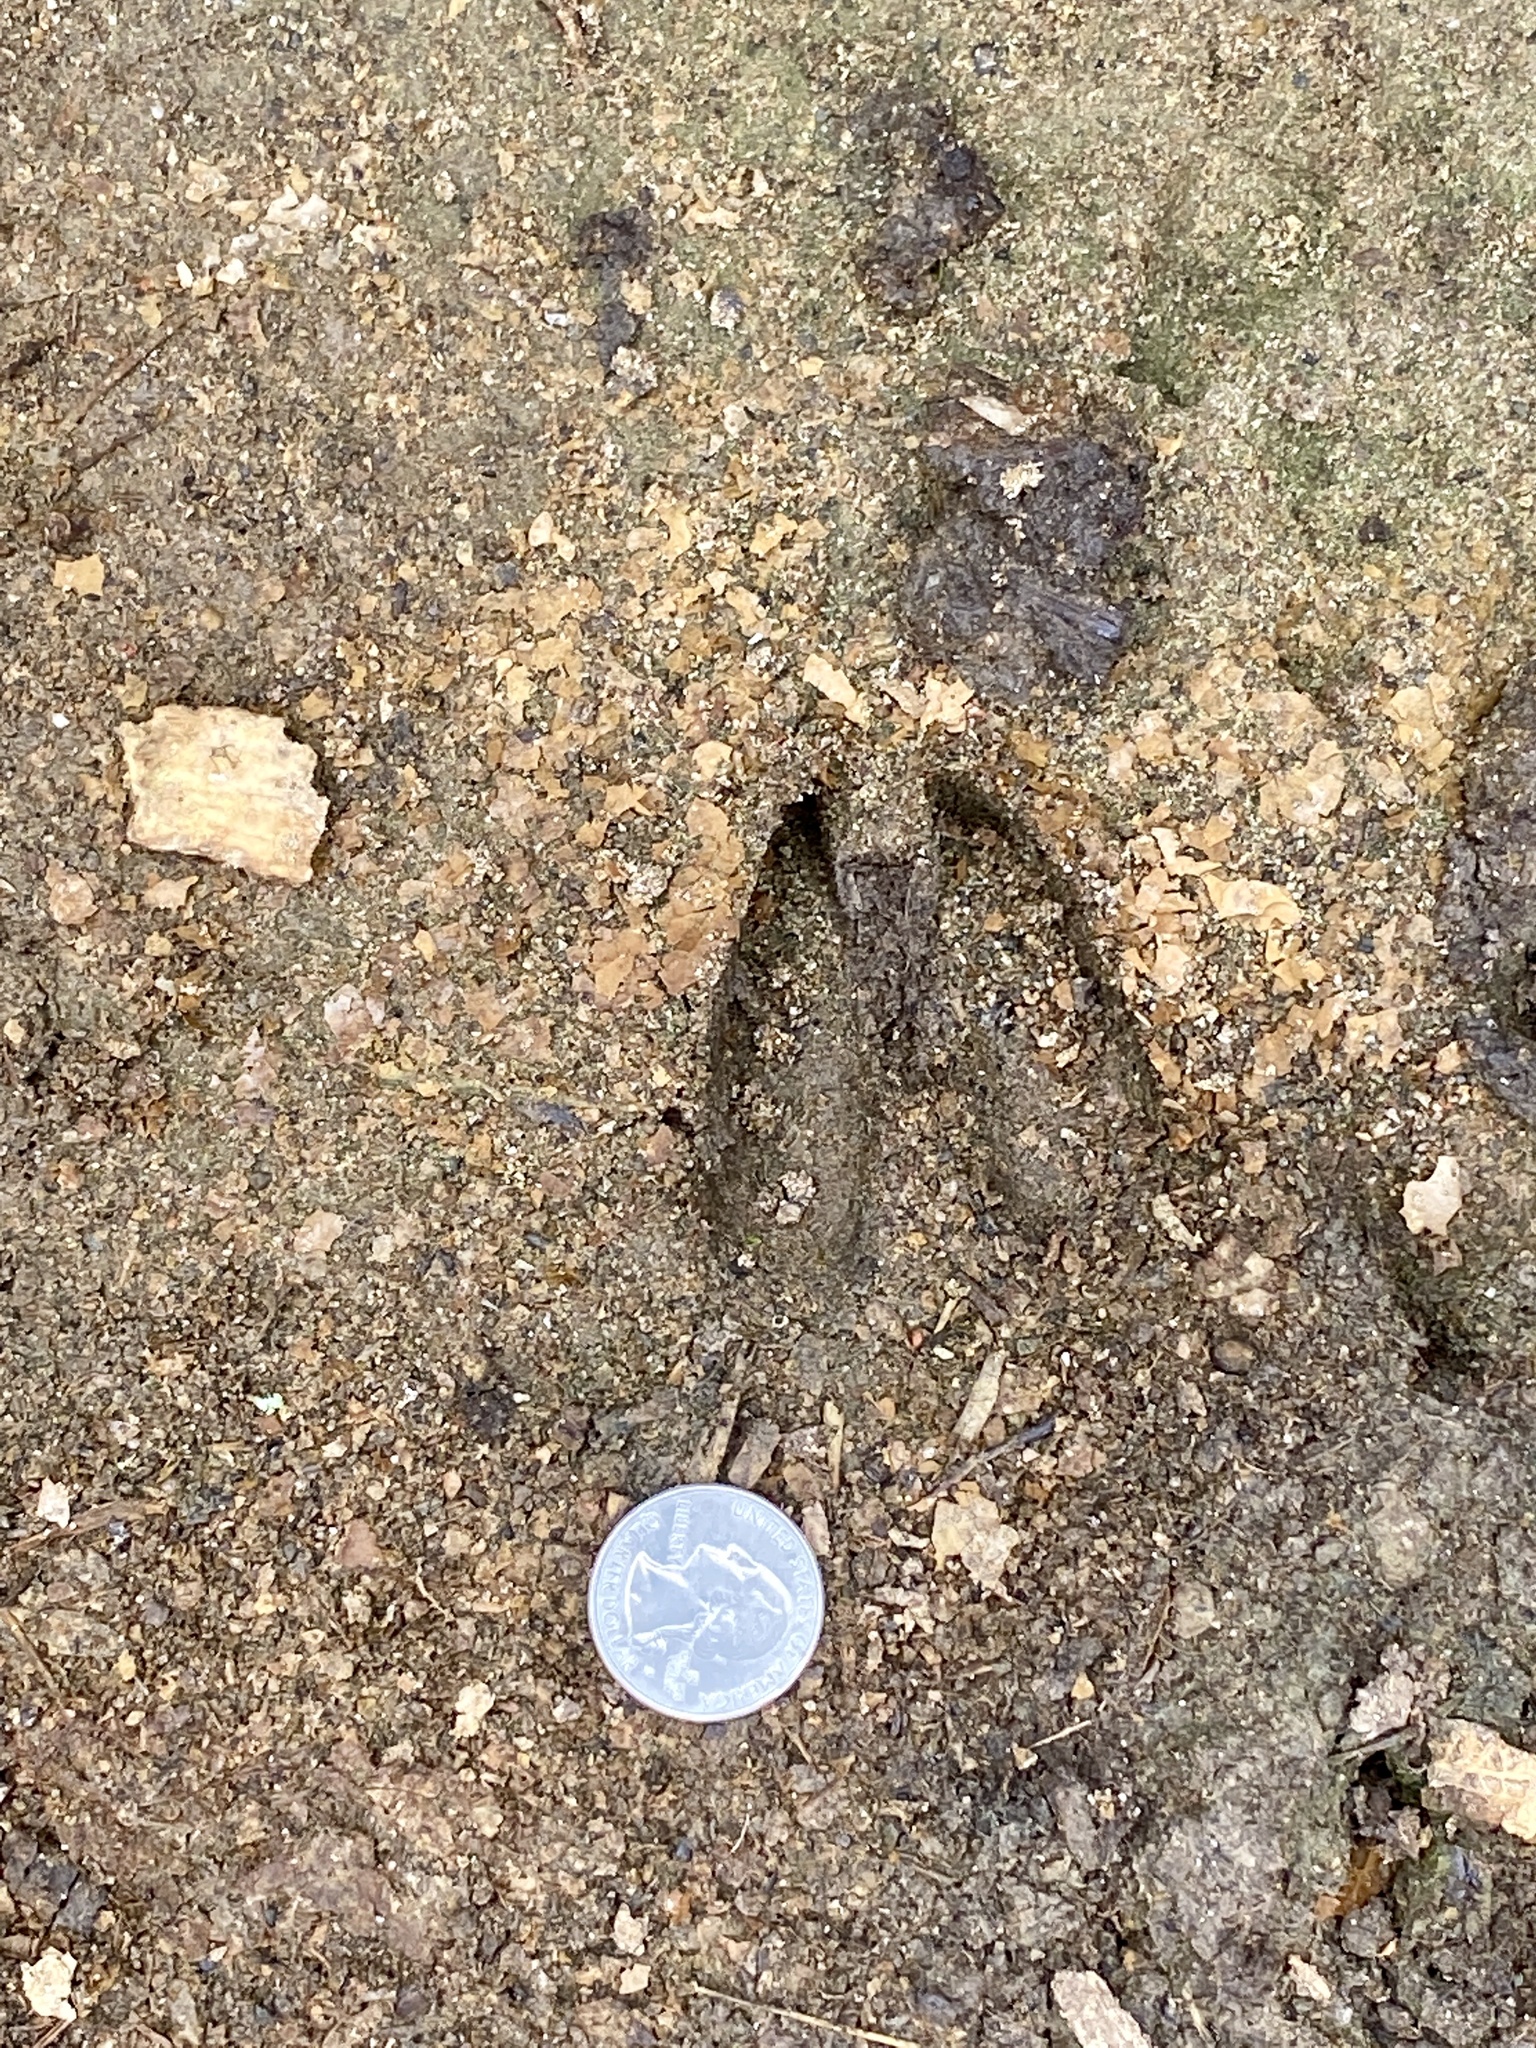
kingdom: Animalia
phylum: Chordata
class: Mammalia
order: Artiodactyla
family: Cervidae
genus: Odocoileus
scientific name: Odocoileus virginianus
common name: White-tailed deer
